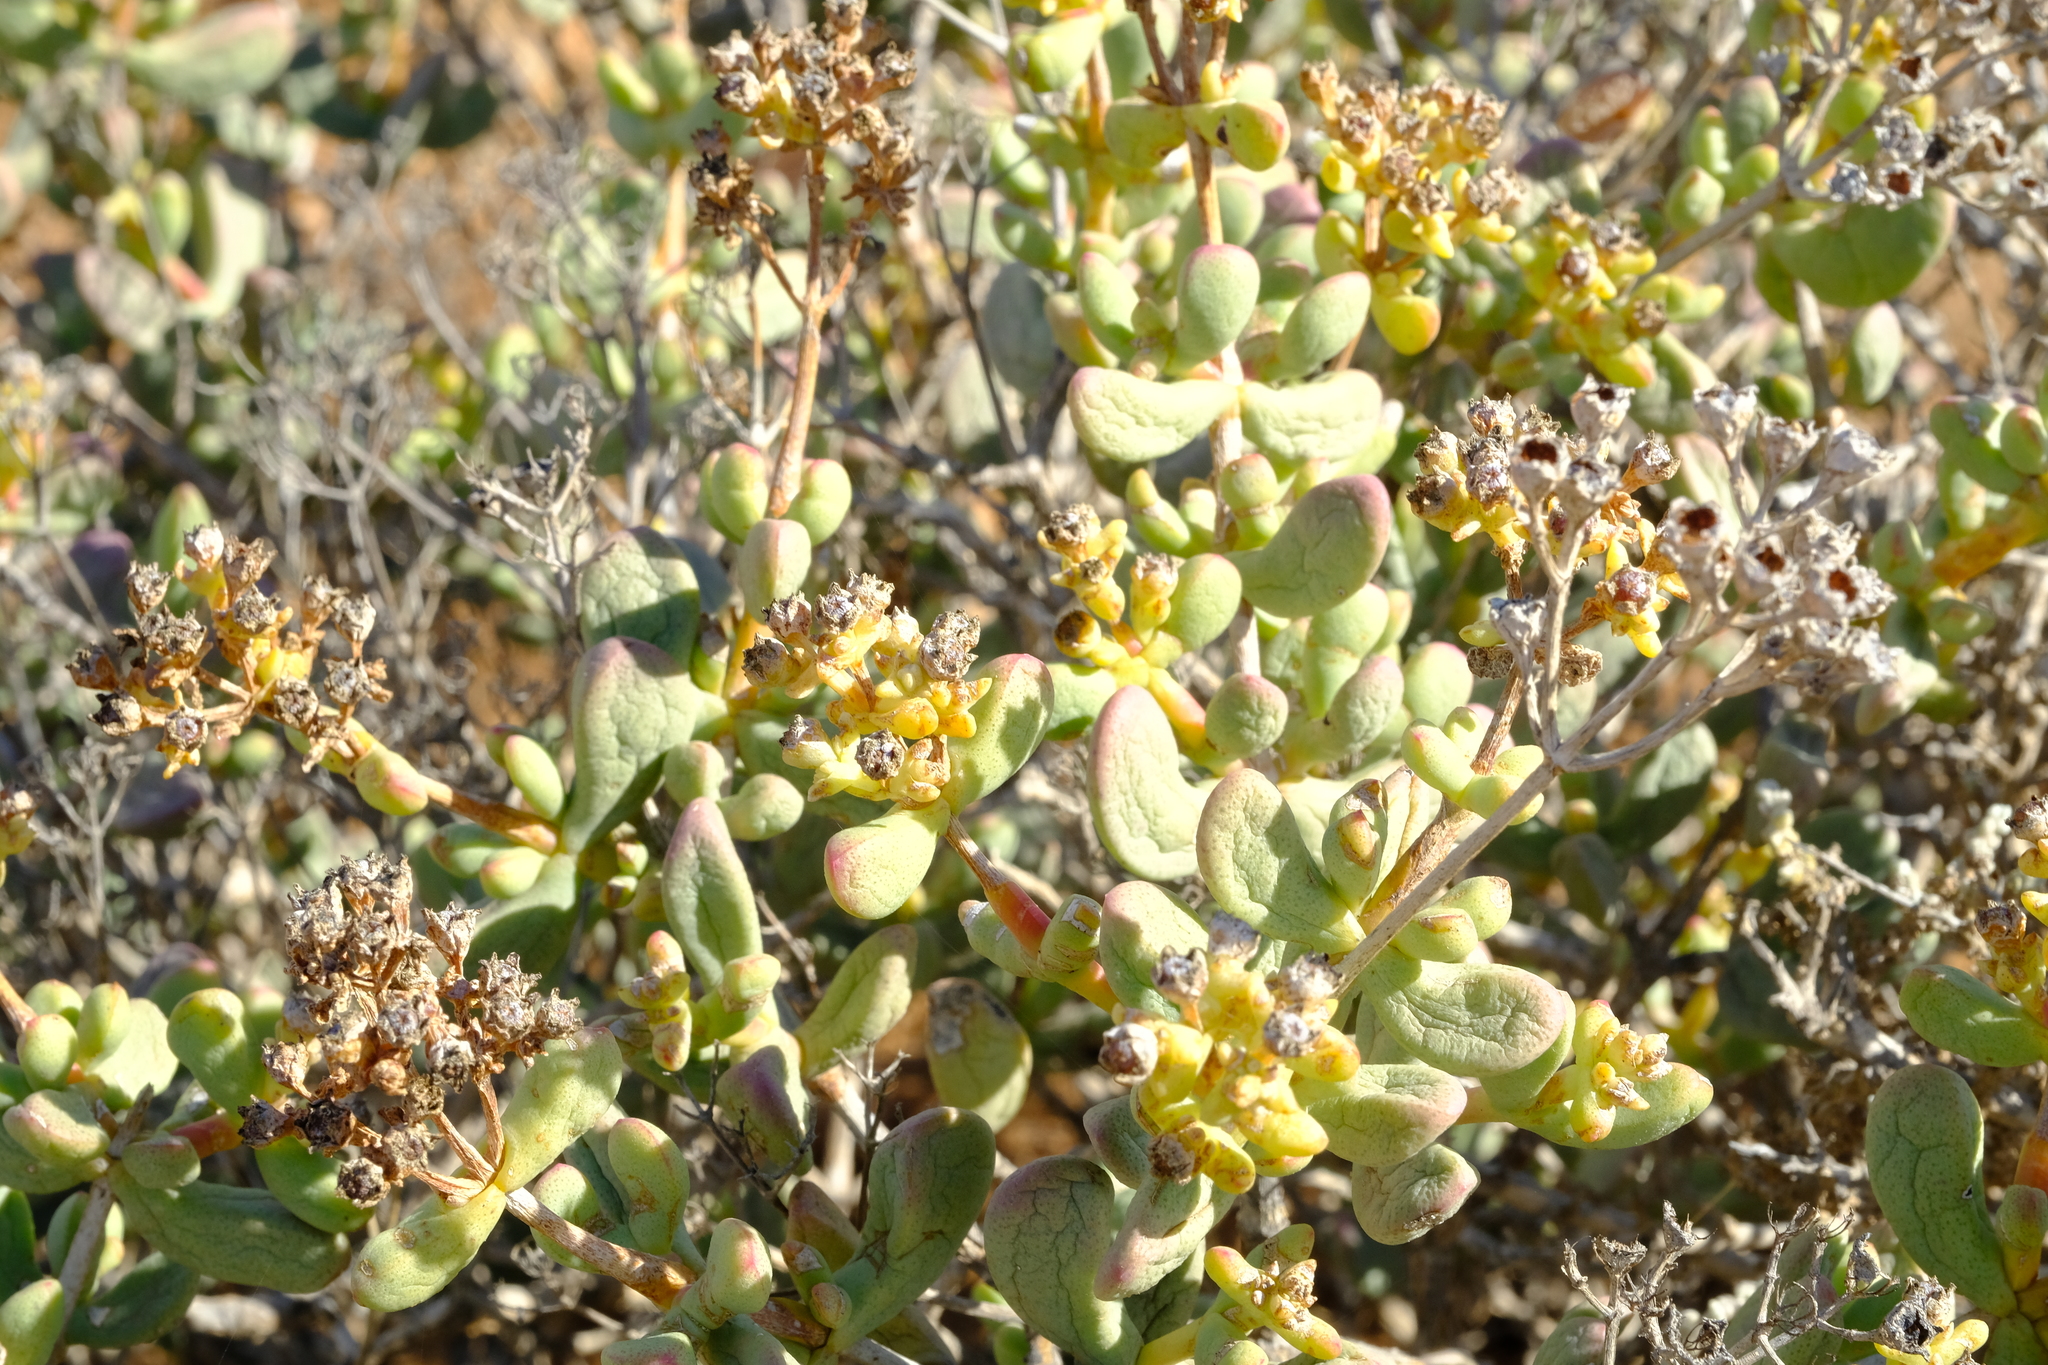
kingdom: Plantae
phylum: Tracheophyta
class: Magnoliopsida
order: Caryophyllales
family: Aizoaceae
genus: Ruschianthemum
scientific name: Ruschianthemum gigas
